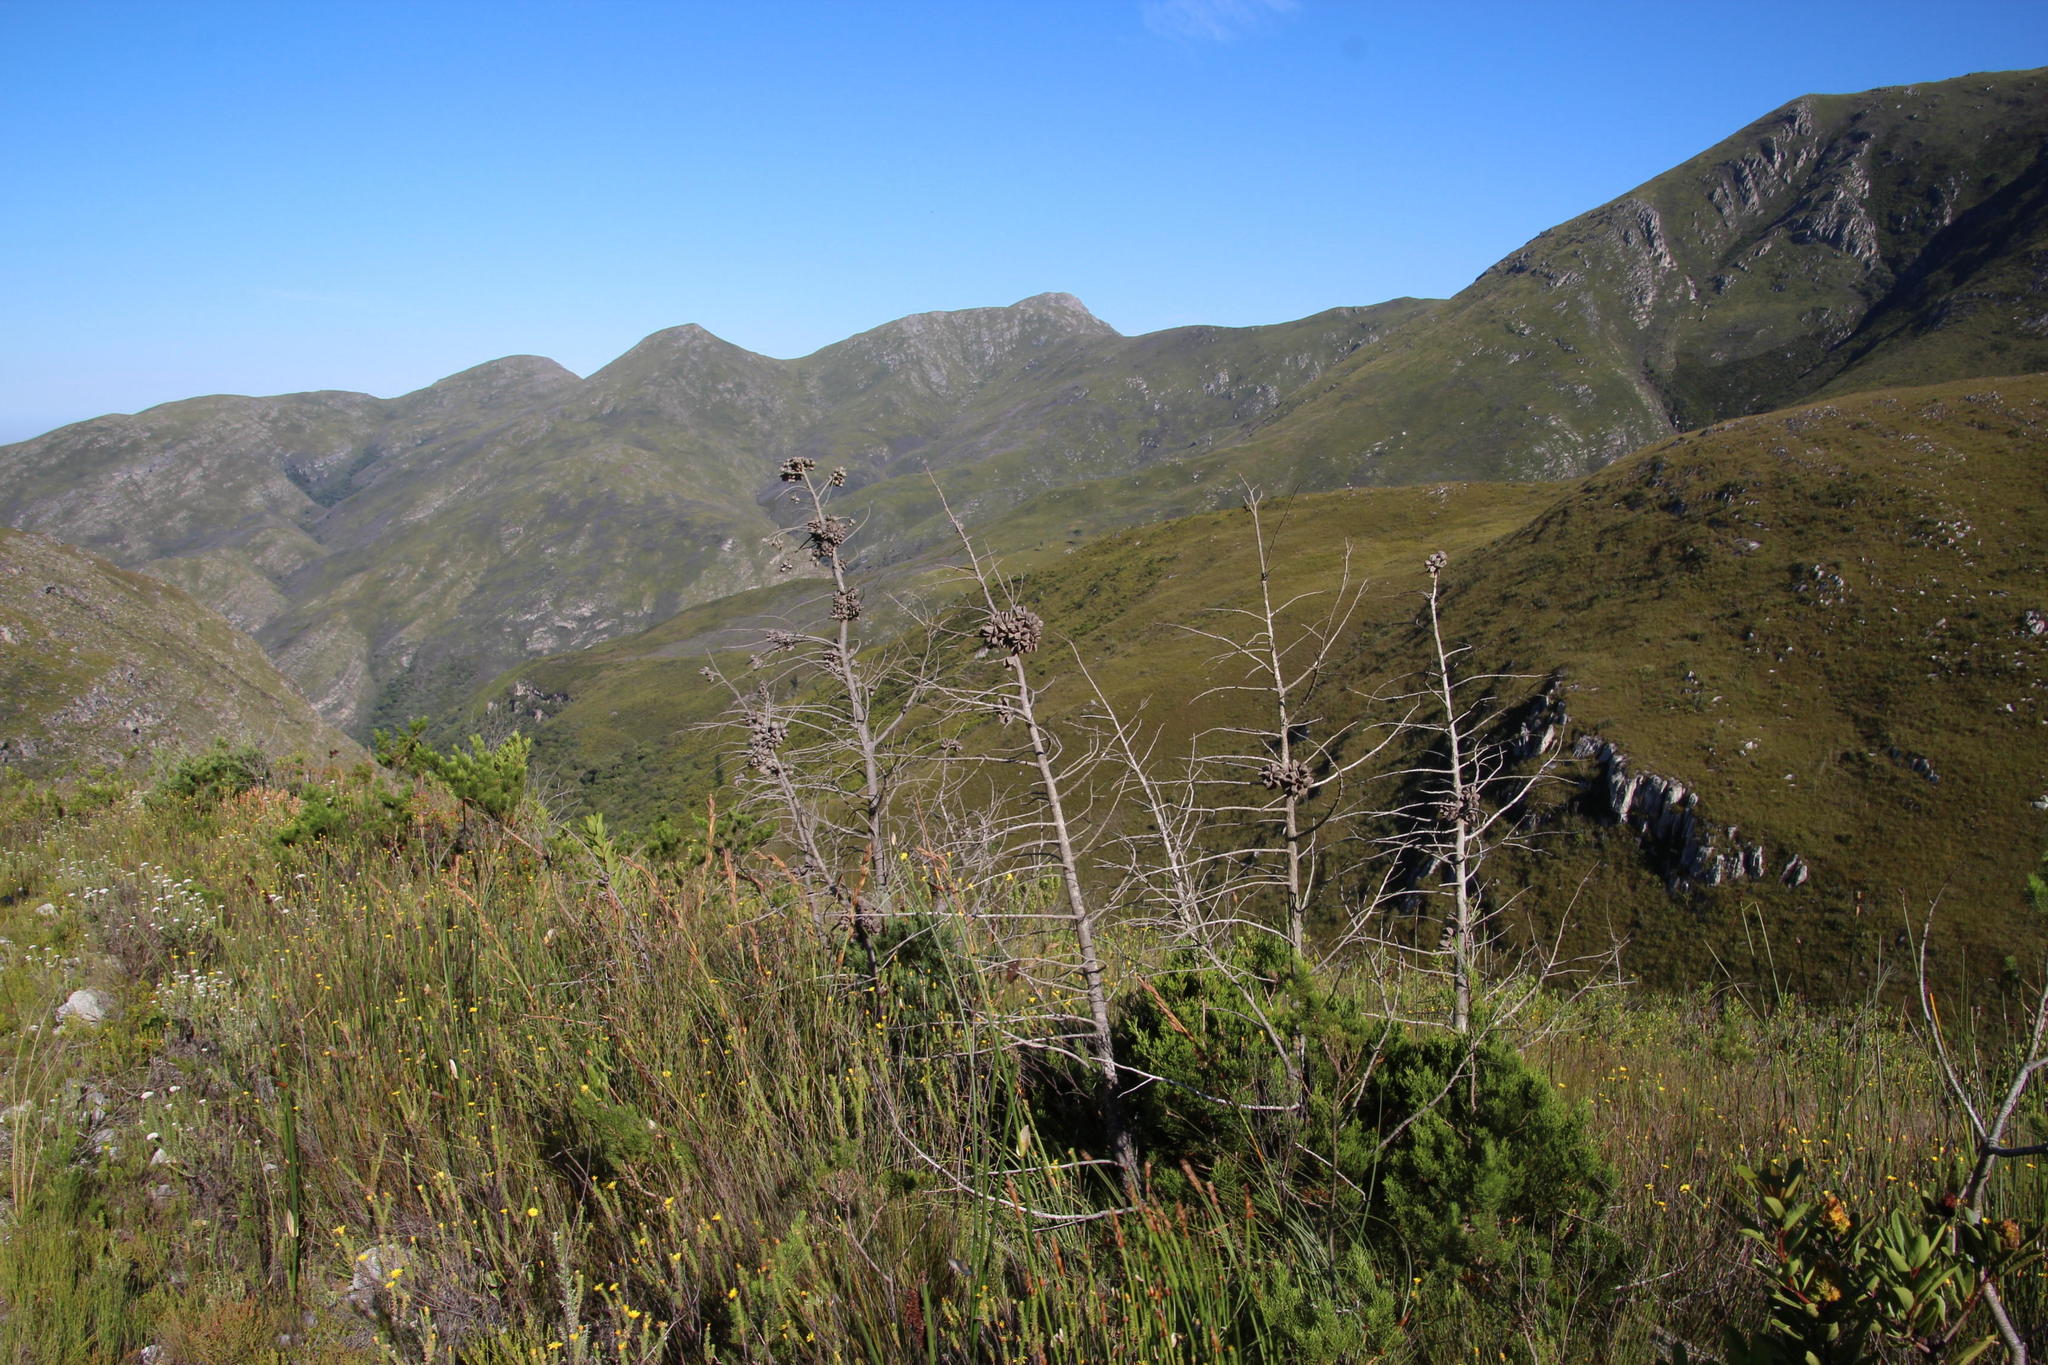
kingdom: Plantae
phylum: Tracheophyta
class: Pinopsida
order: Pinales
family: Cupressaceae
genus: Widdringtonia
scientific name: Widdringtonia nodiflora
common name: Cape cypress
